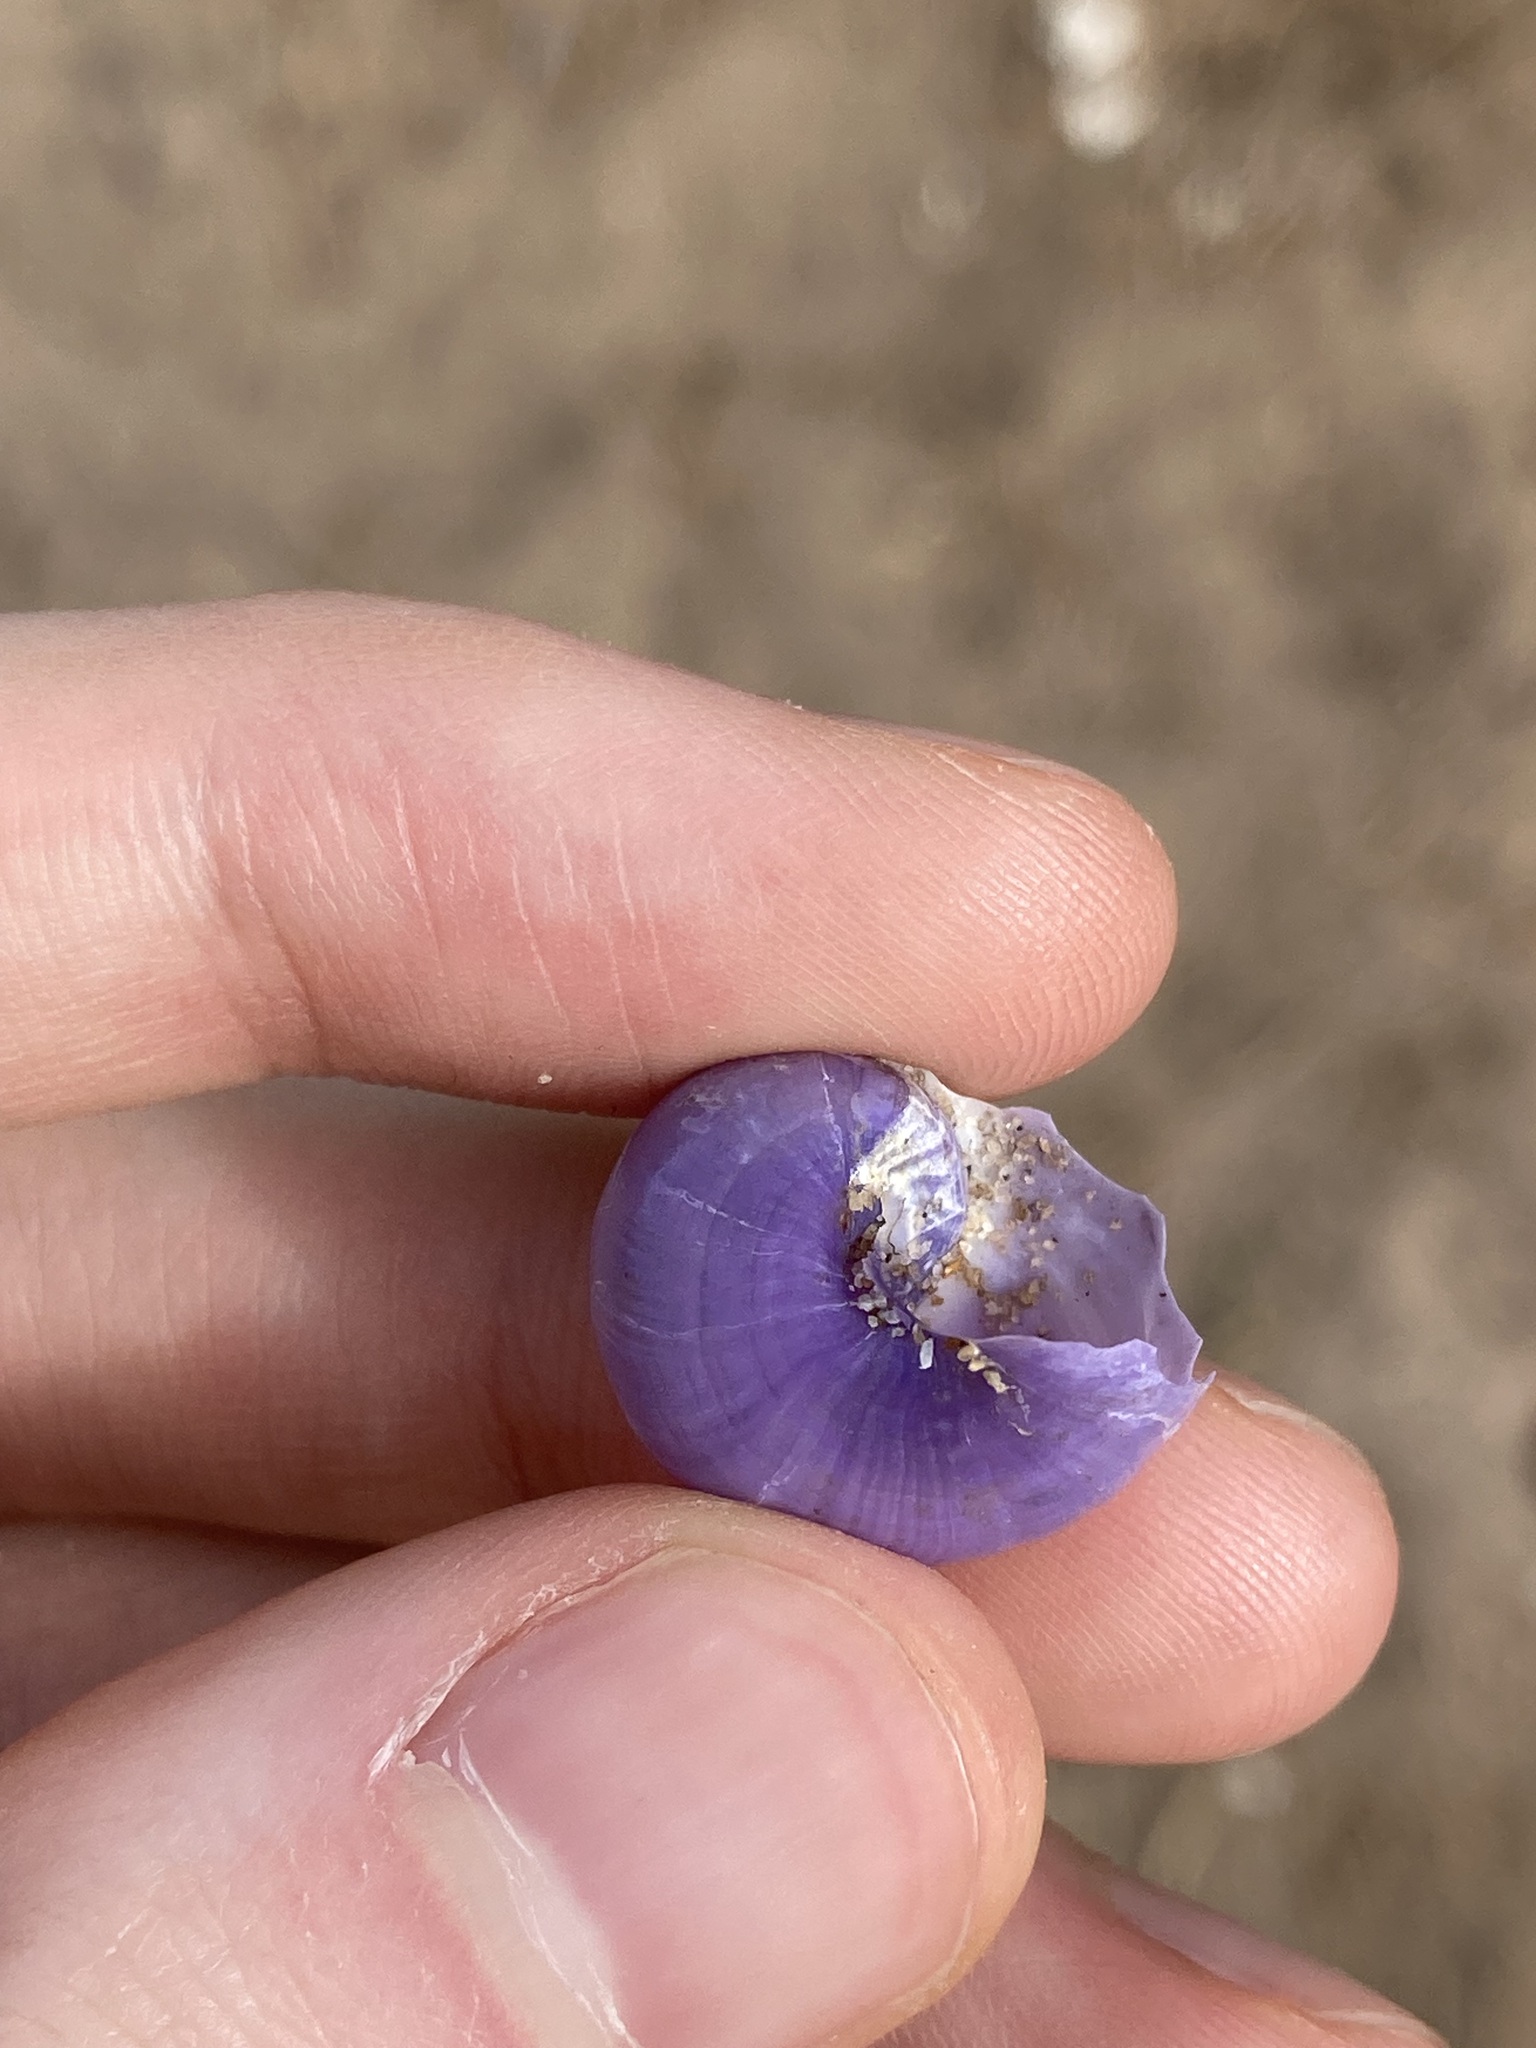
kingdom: Animalia
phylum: Mollusca
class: Gastropoda
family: Epitoniidae
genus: Janthina
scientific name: Janthina globosa
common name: Elongate janthina
